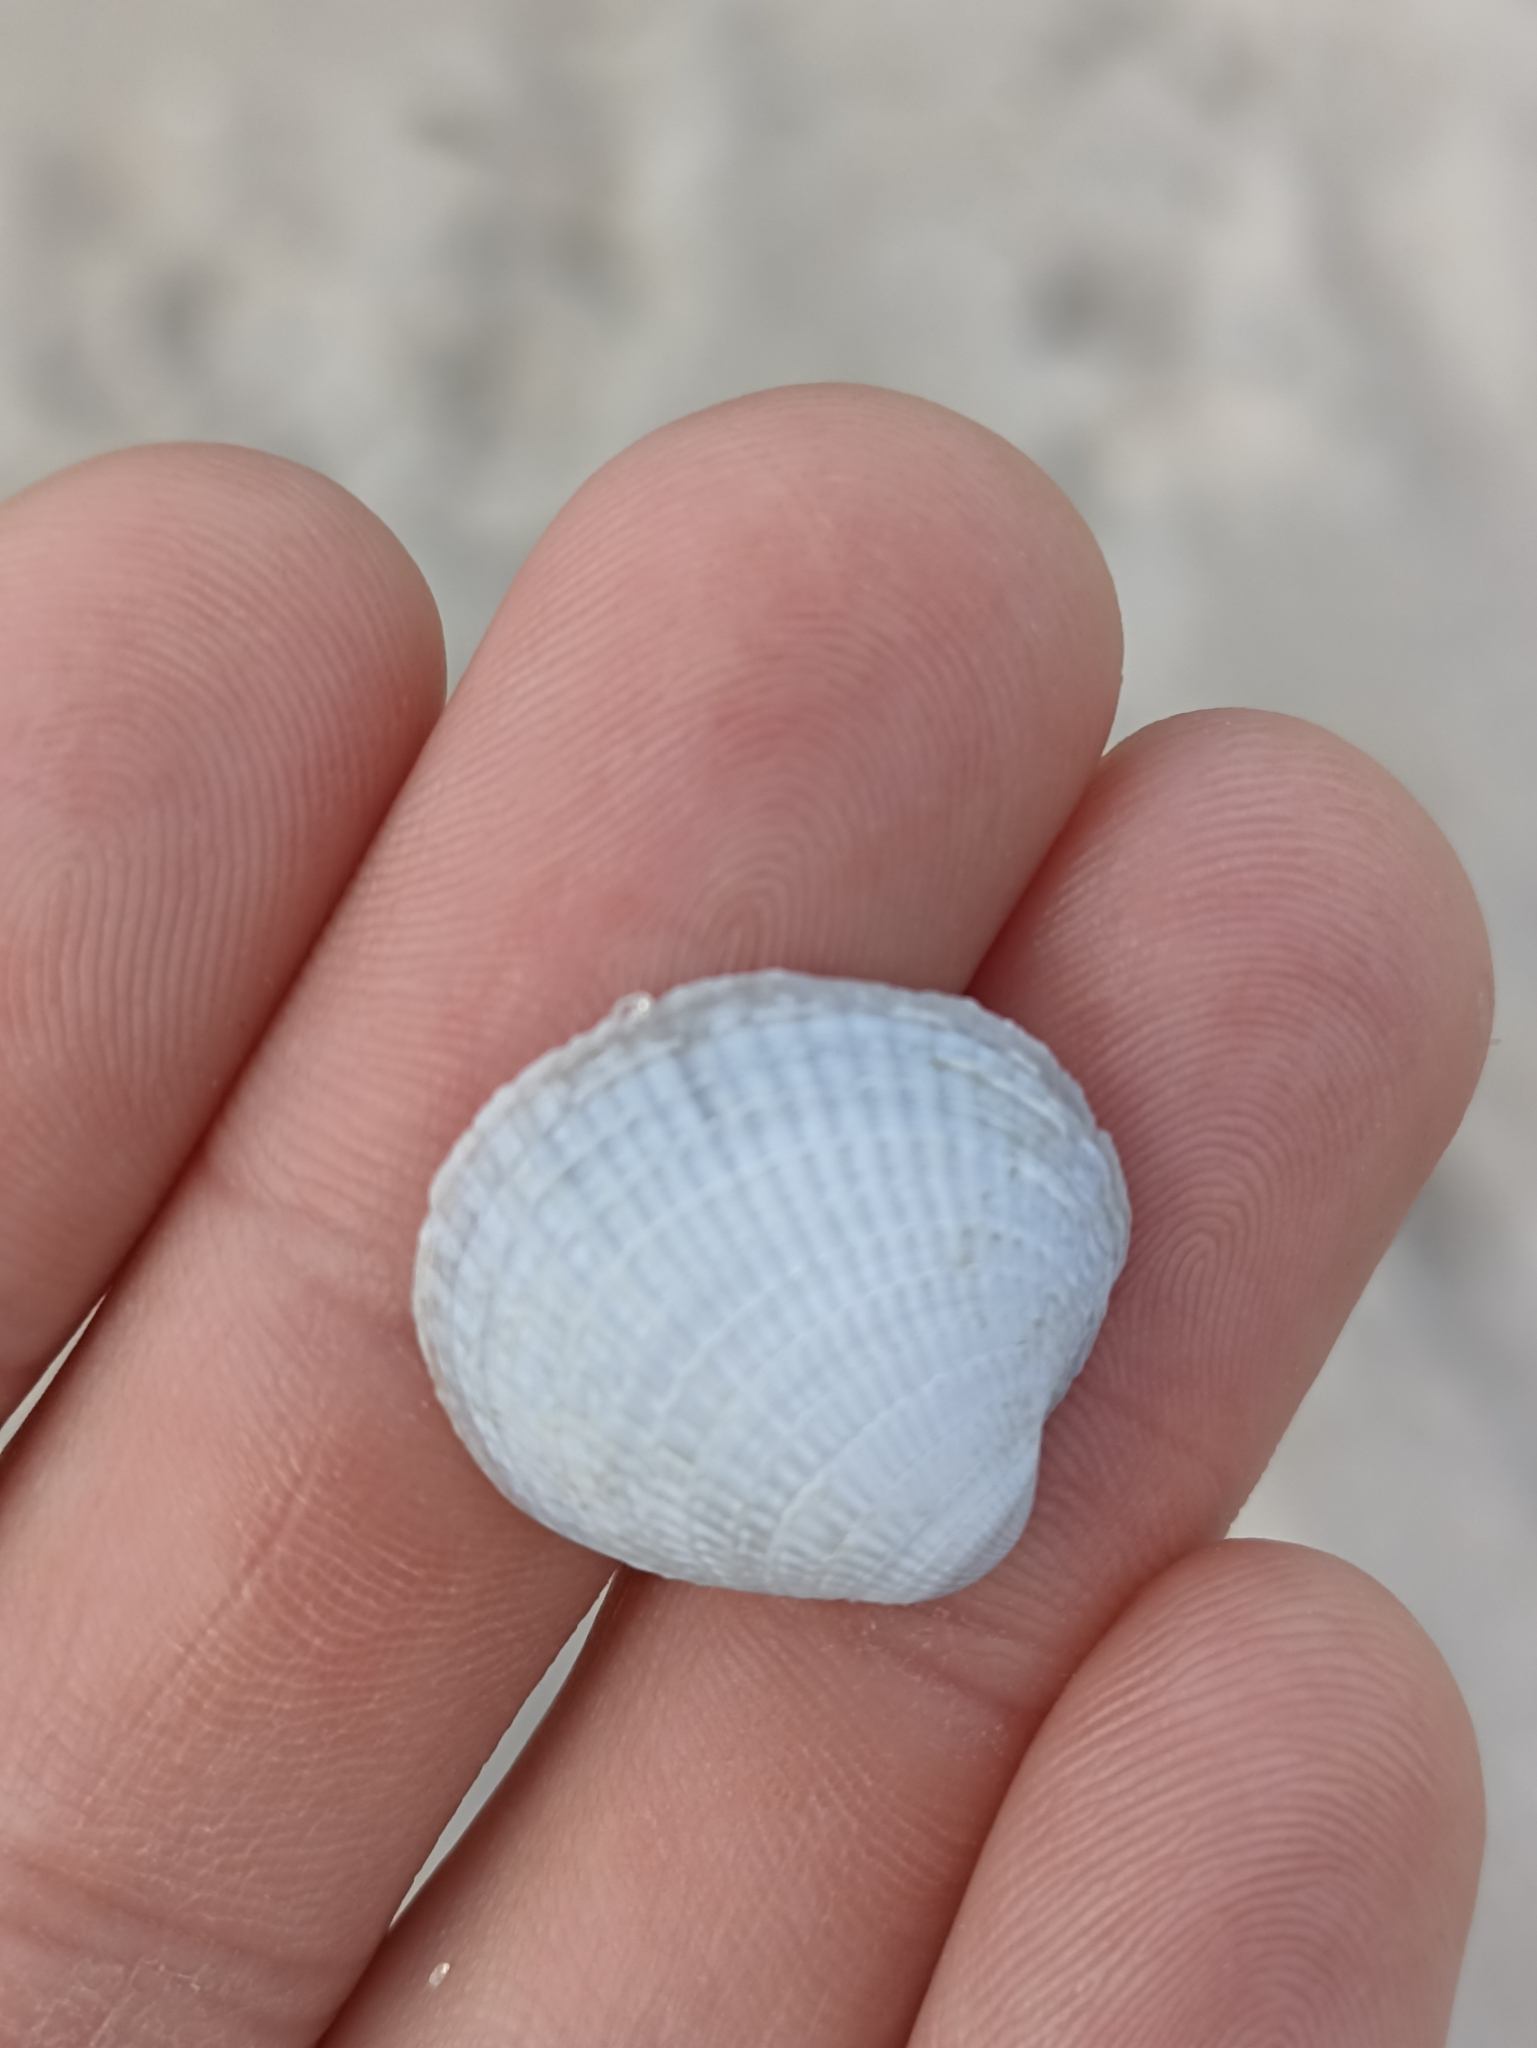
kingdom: Animalia
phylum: Mollusca
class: Bivalvia
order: Venerida
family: Veneridae
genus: Austrovenus
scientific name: Austrovenus stutchburyi
